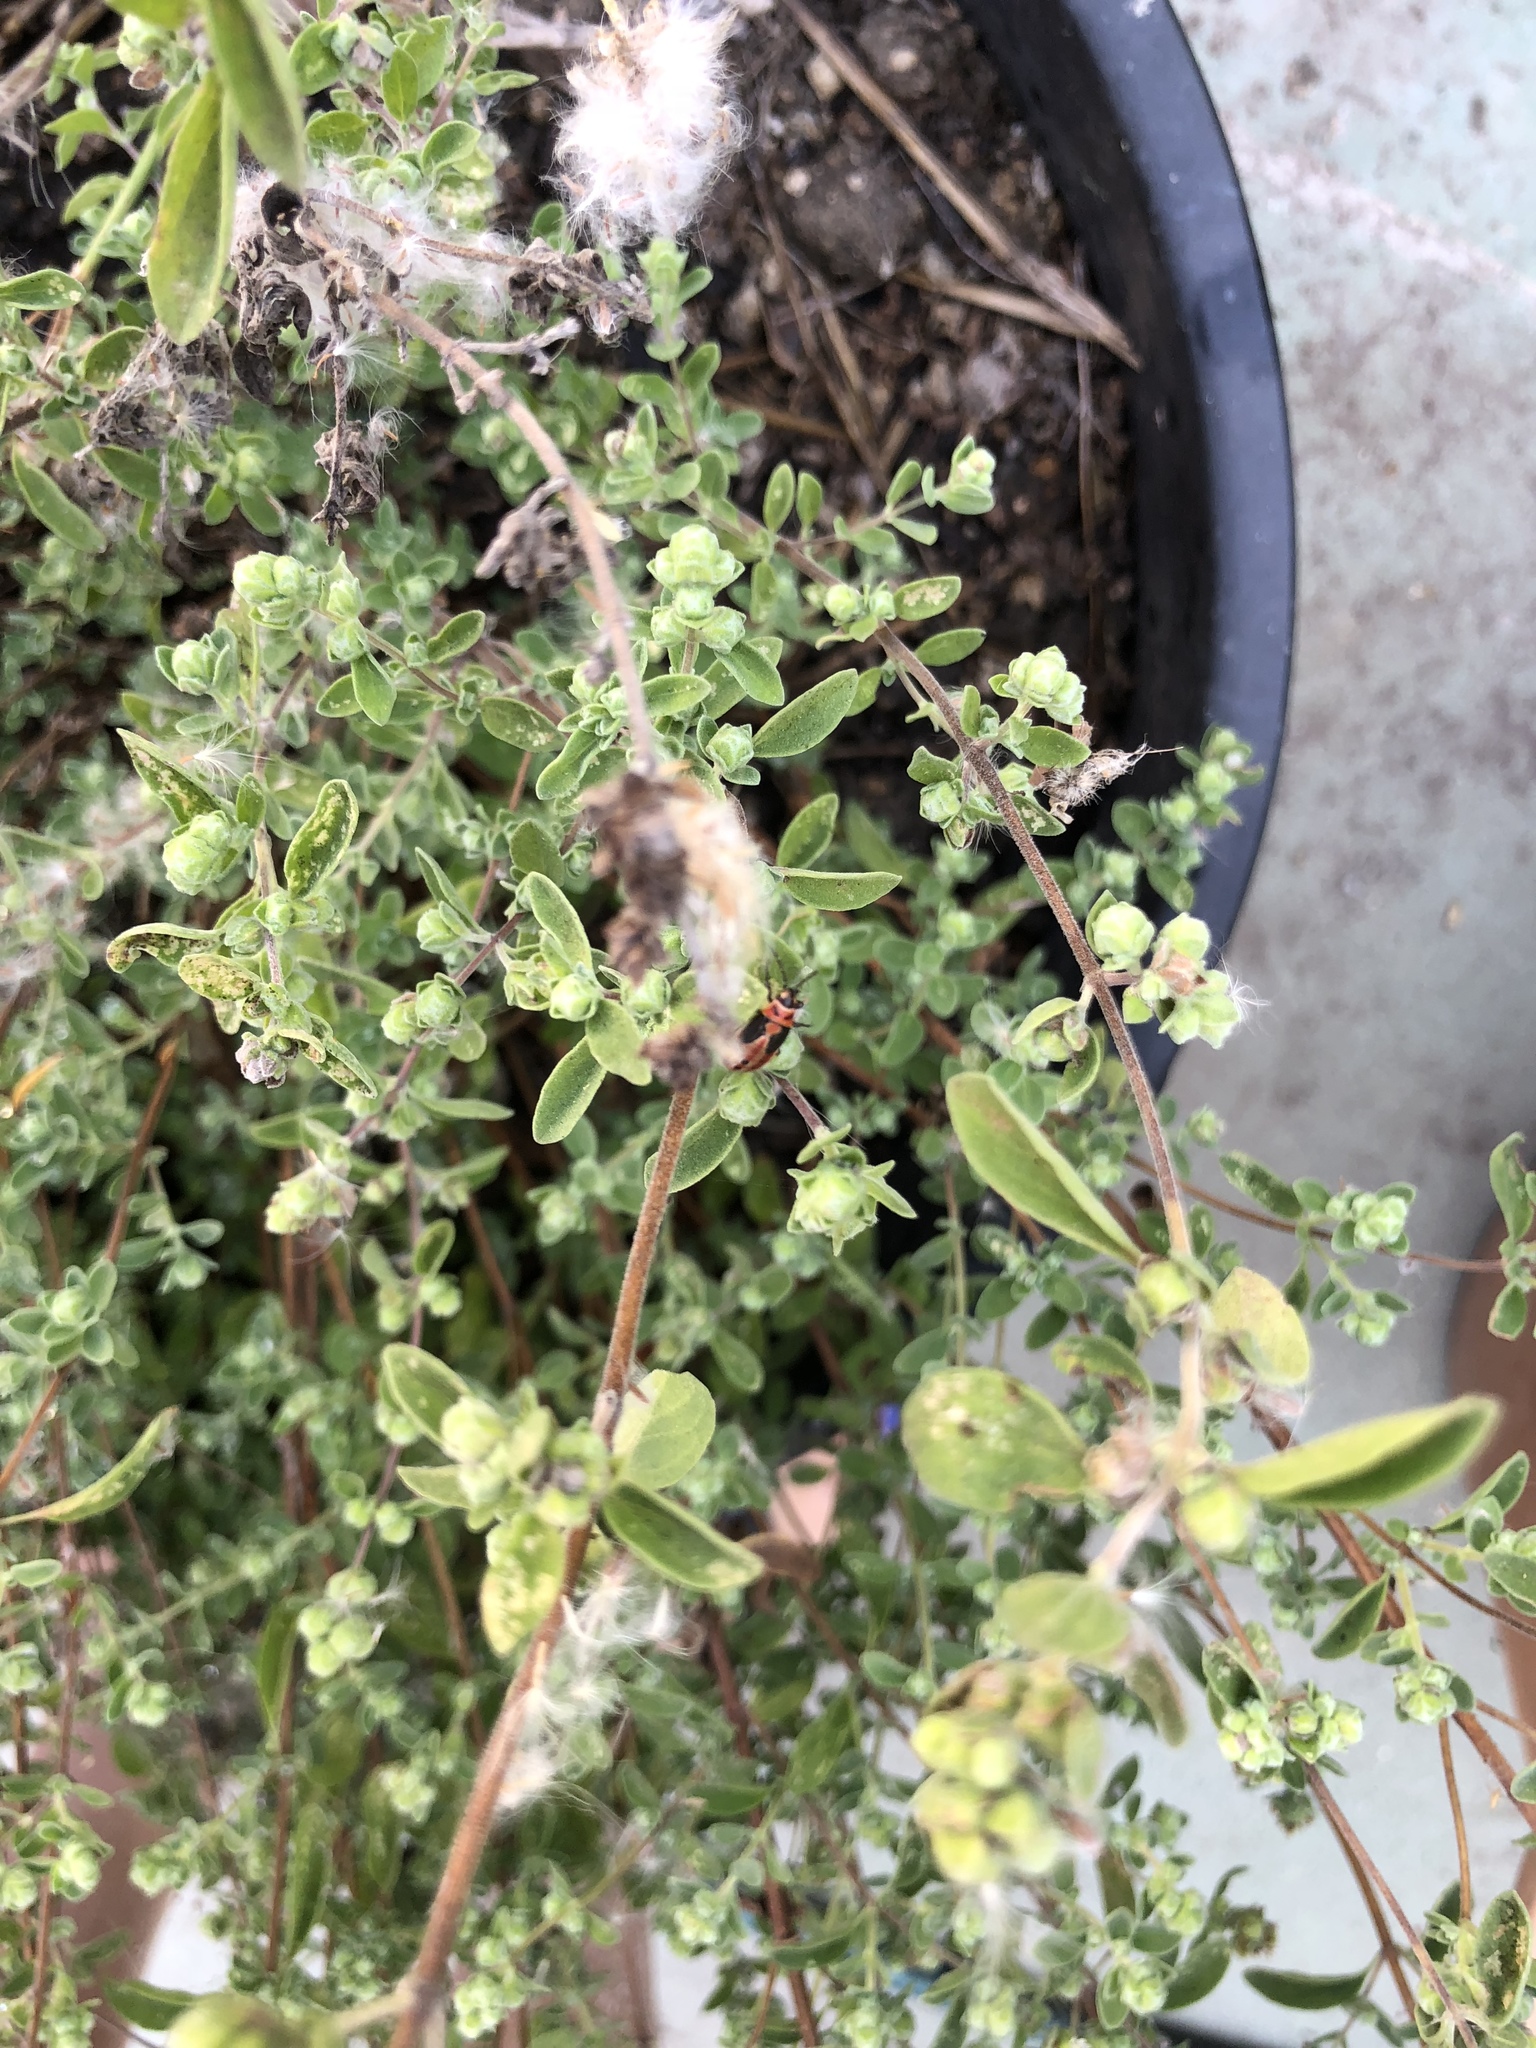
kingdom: Animalia
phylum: Arthropoda
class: Insecta
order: Hemiptera
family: Lygaeidae
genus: Lygaeus
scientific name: Lygaeus kalmii
